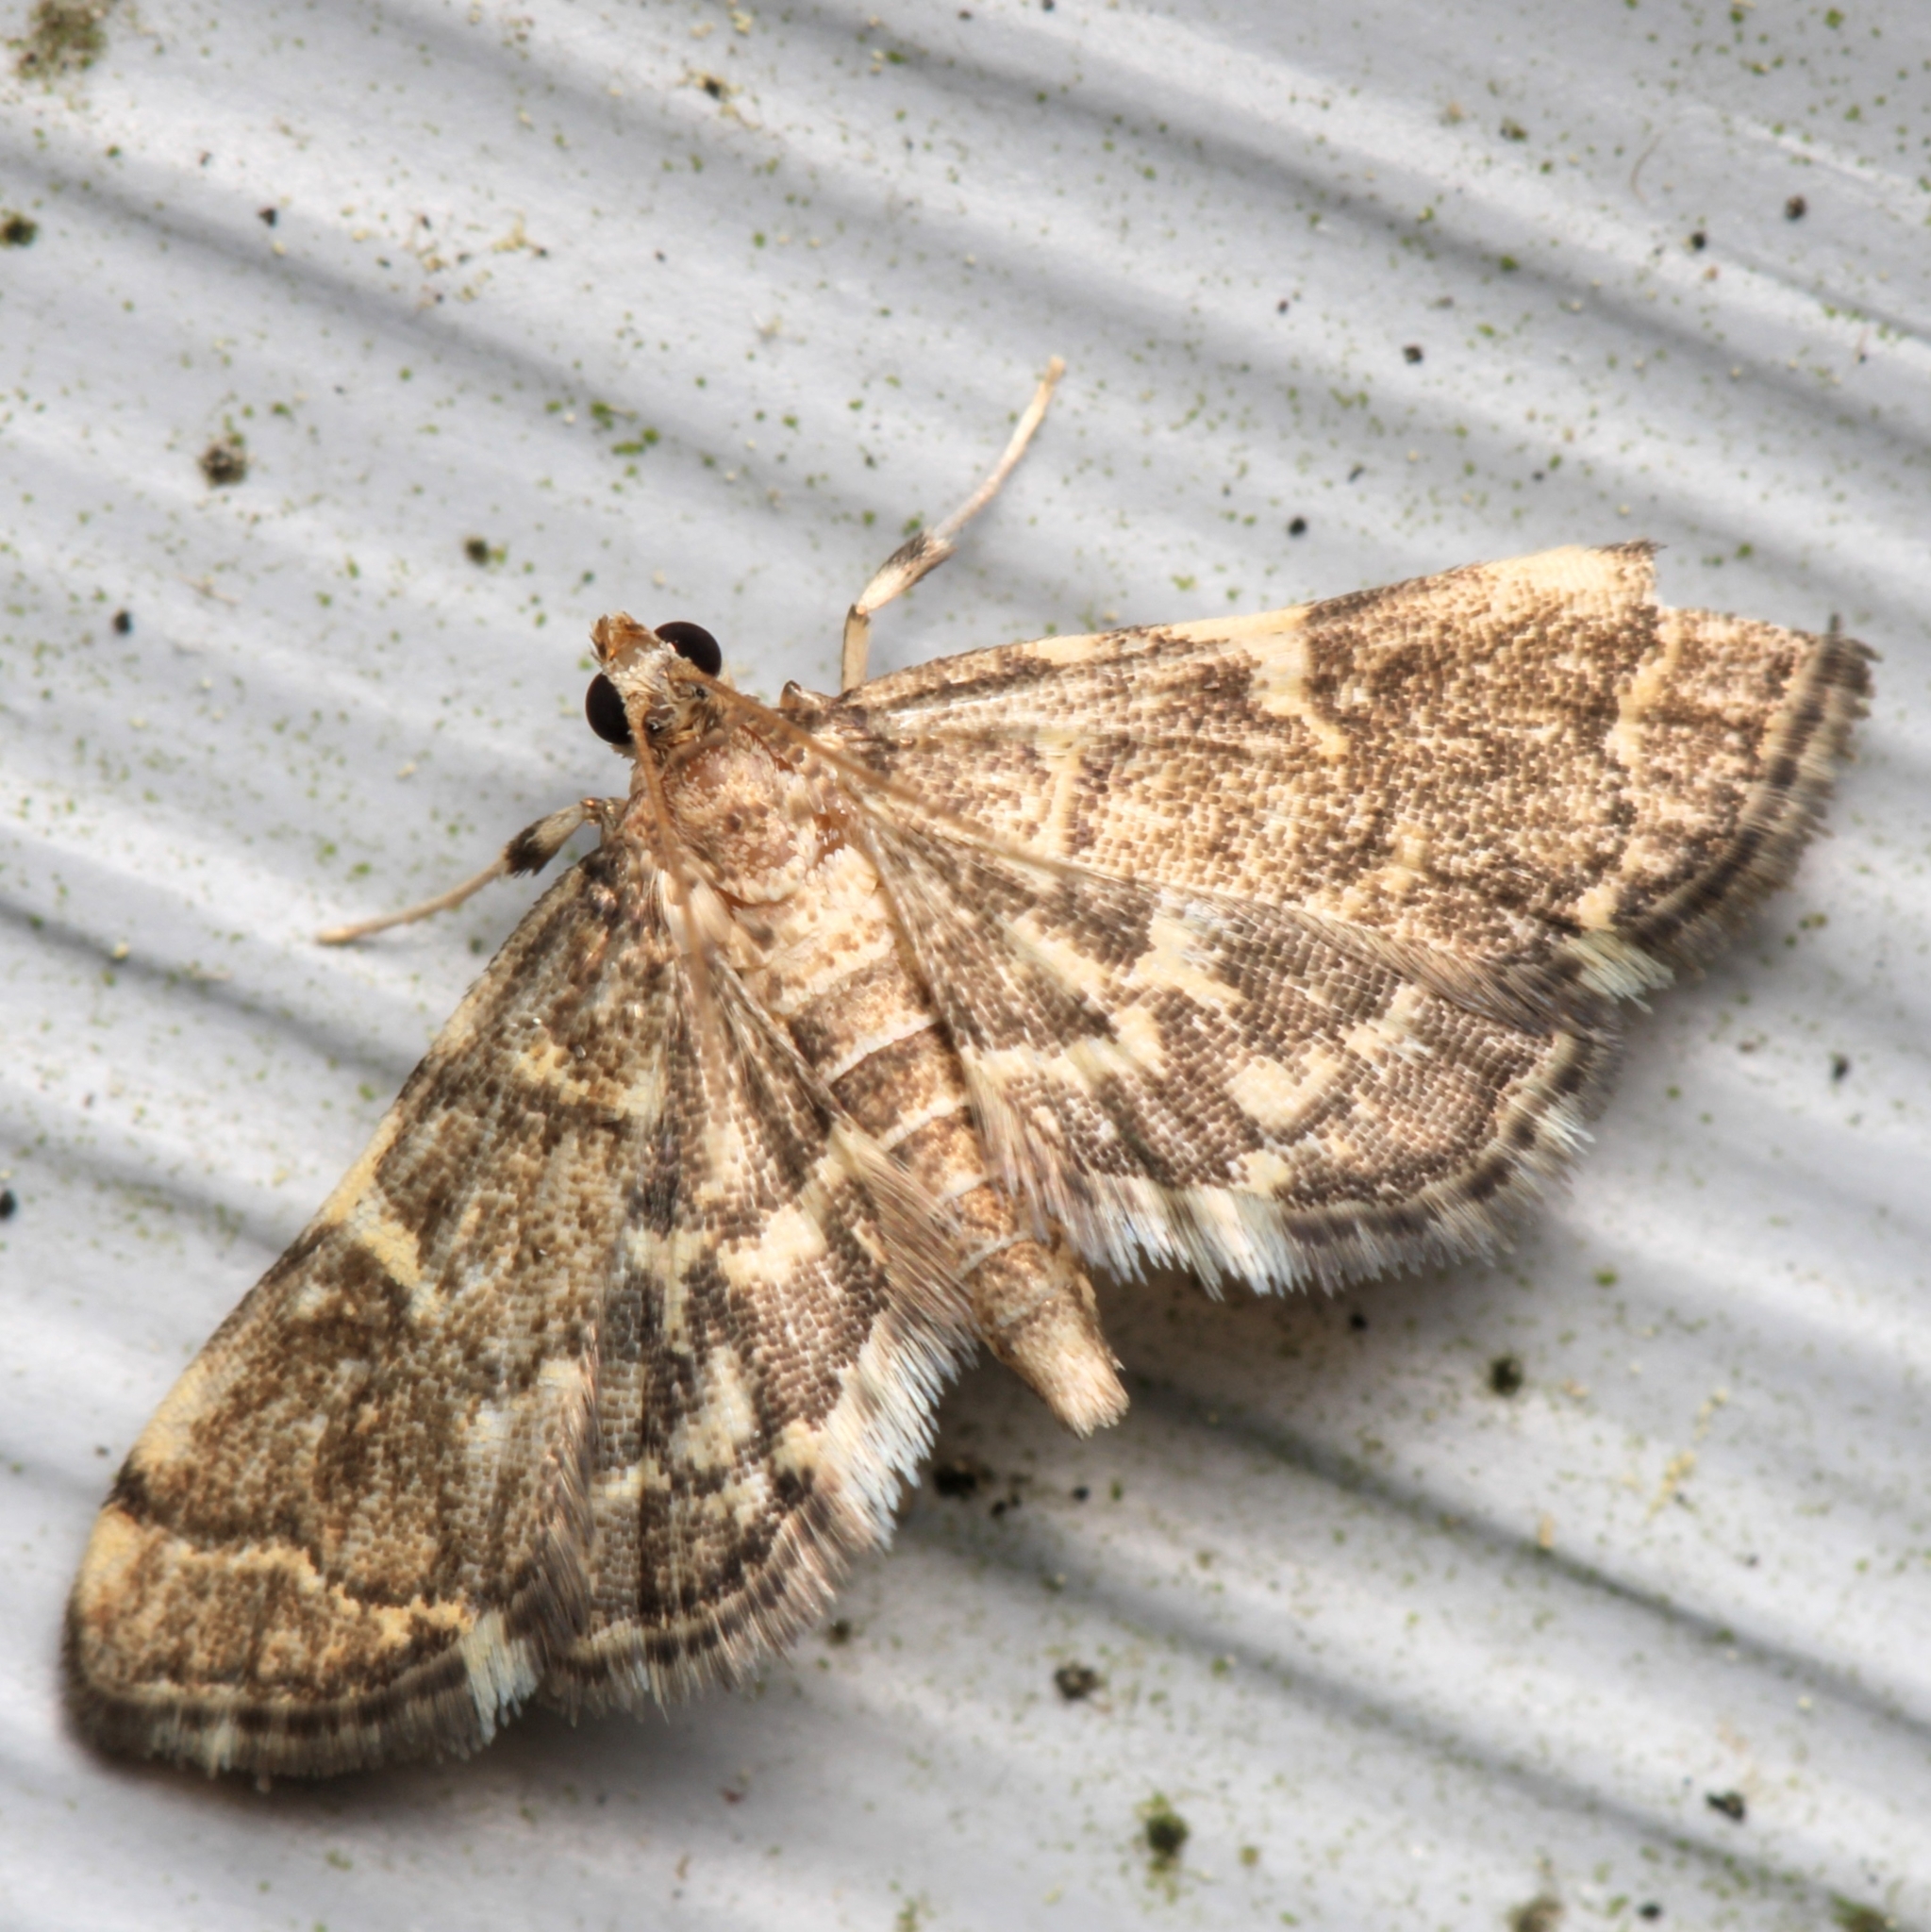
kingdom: Animalia
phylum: Arthropoda
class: Insecta
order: Lepidoptera
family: Crambidae
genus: Anageshna
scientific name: Anageshna primordialis
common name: Yellow-spotted webworm moth
